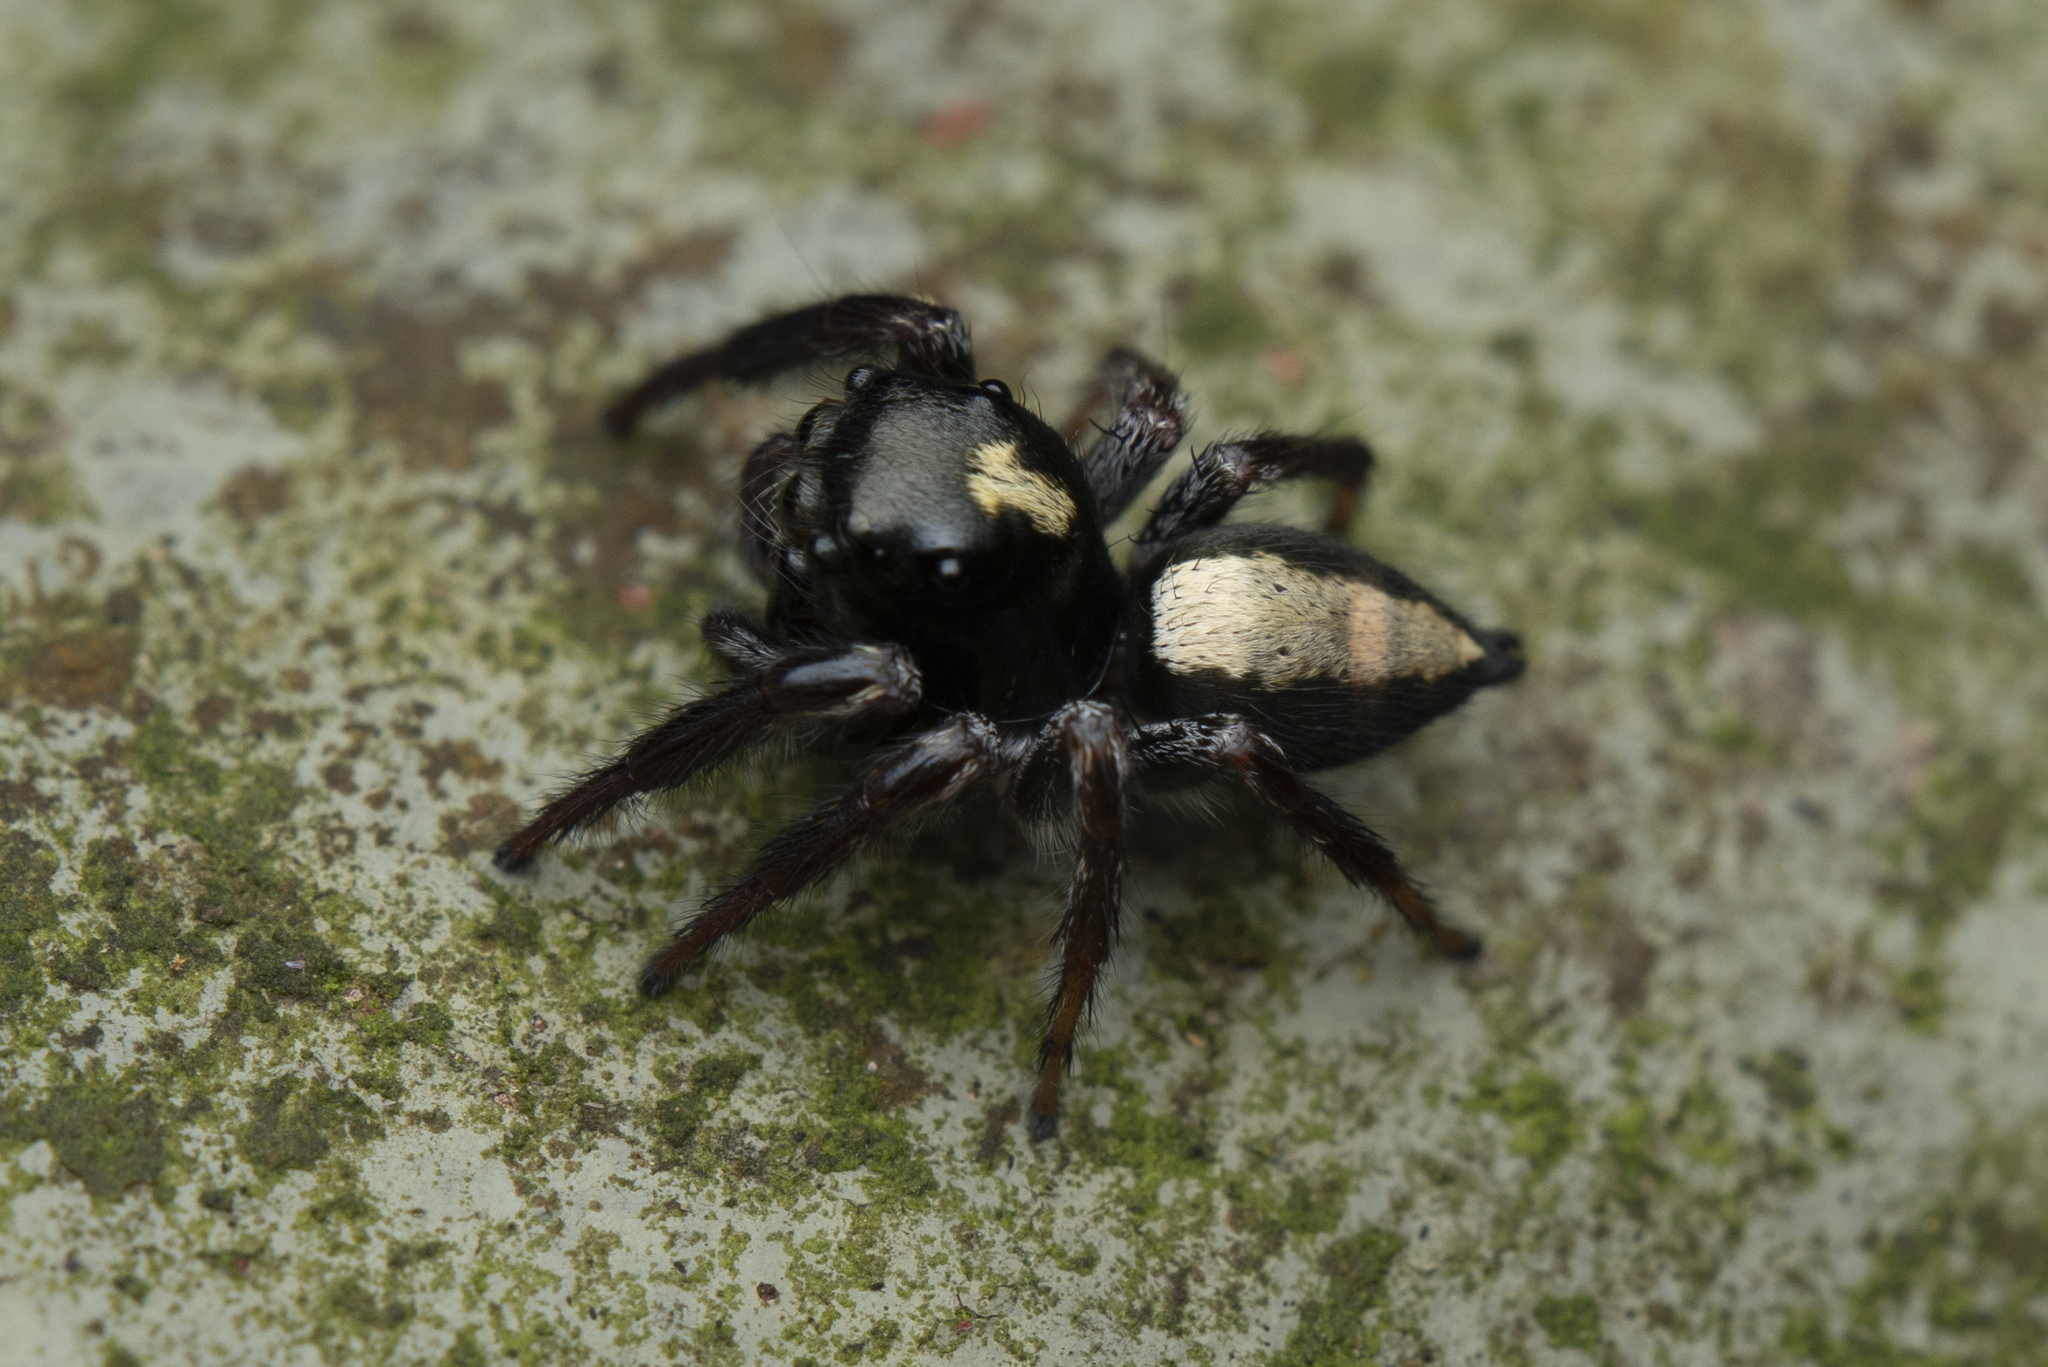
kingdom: Animalia
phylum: Arthropoda
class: Arachnida
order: Araneae
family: Salticidae
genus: Ptocasius
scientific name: Ptocasius strupifer
